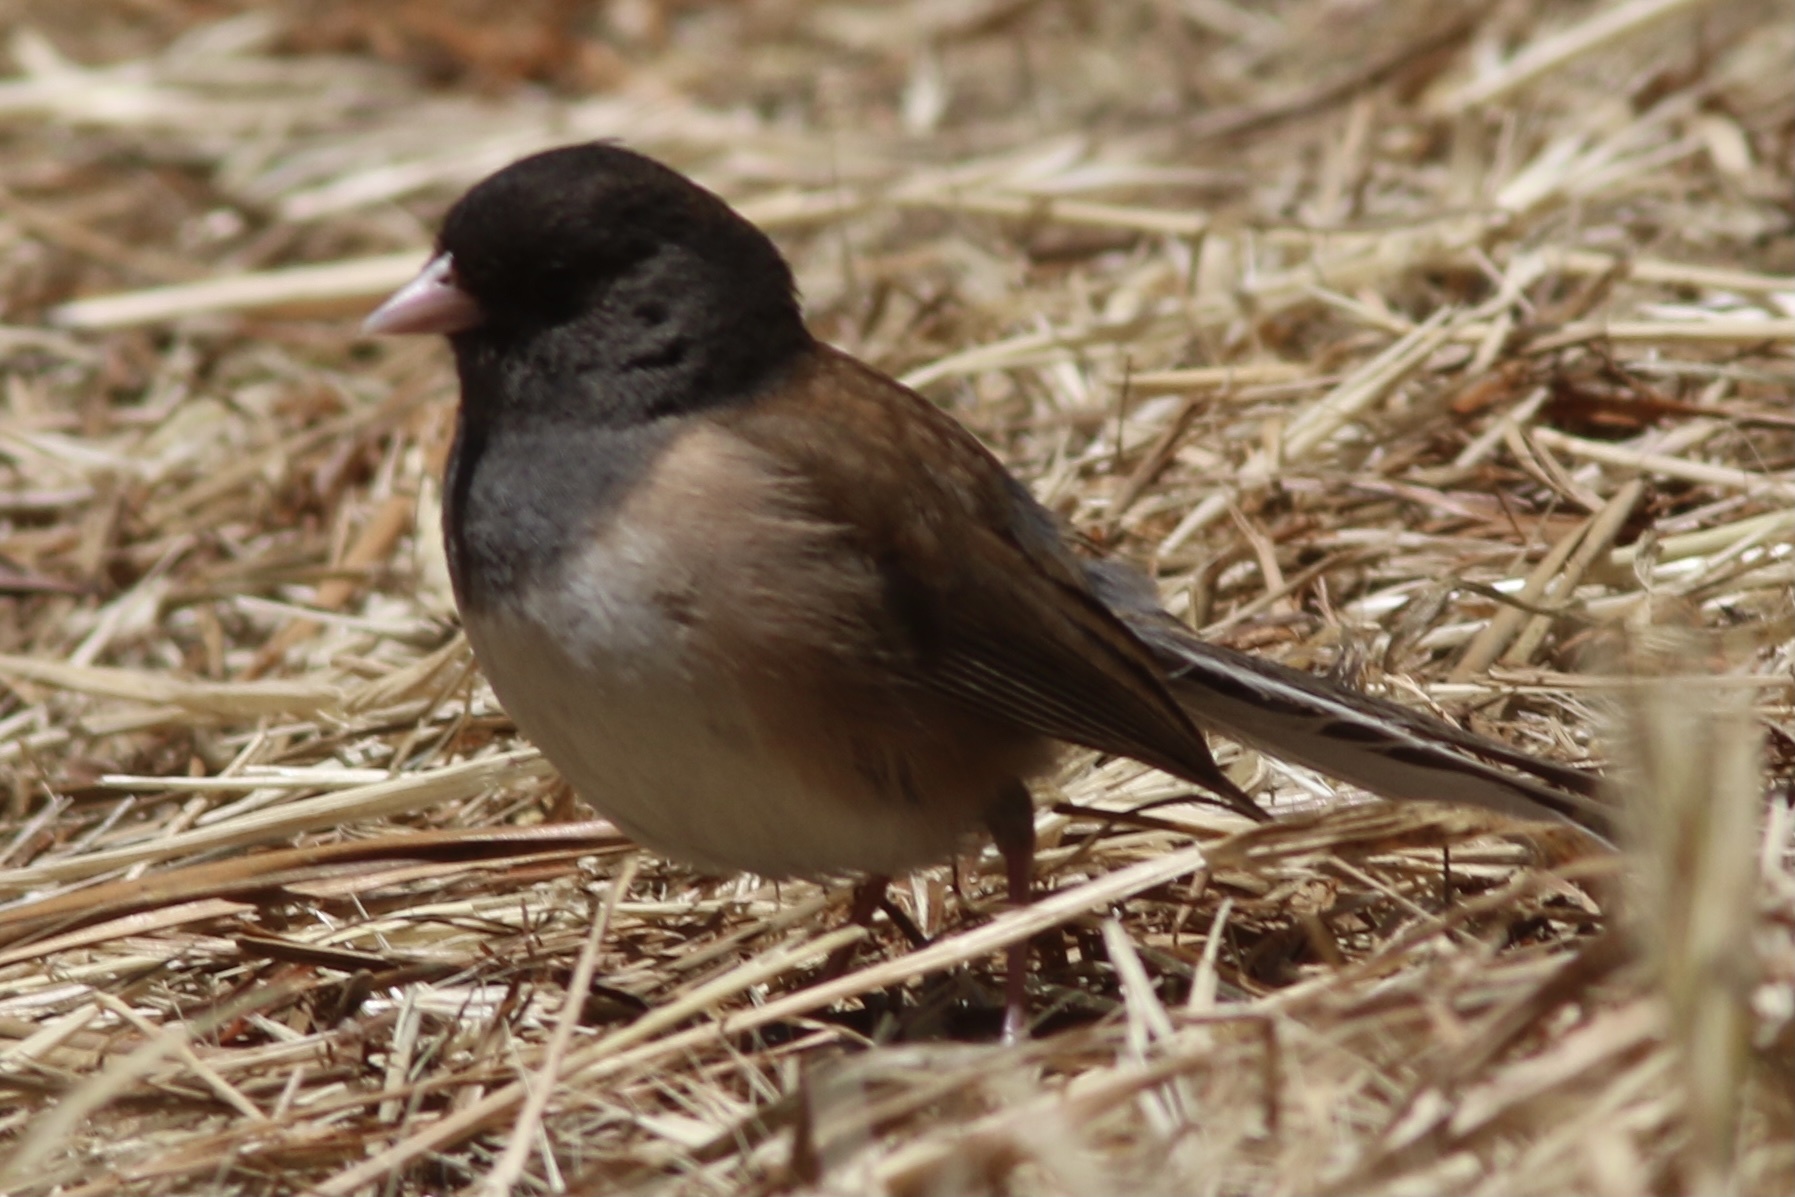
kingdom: Animalia
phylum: Chordata
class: Aves
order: Passeriformes
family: Passerellidae
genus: Junco
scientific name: Junco hyemalis
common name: Dark-eyed junco
